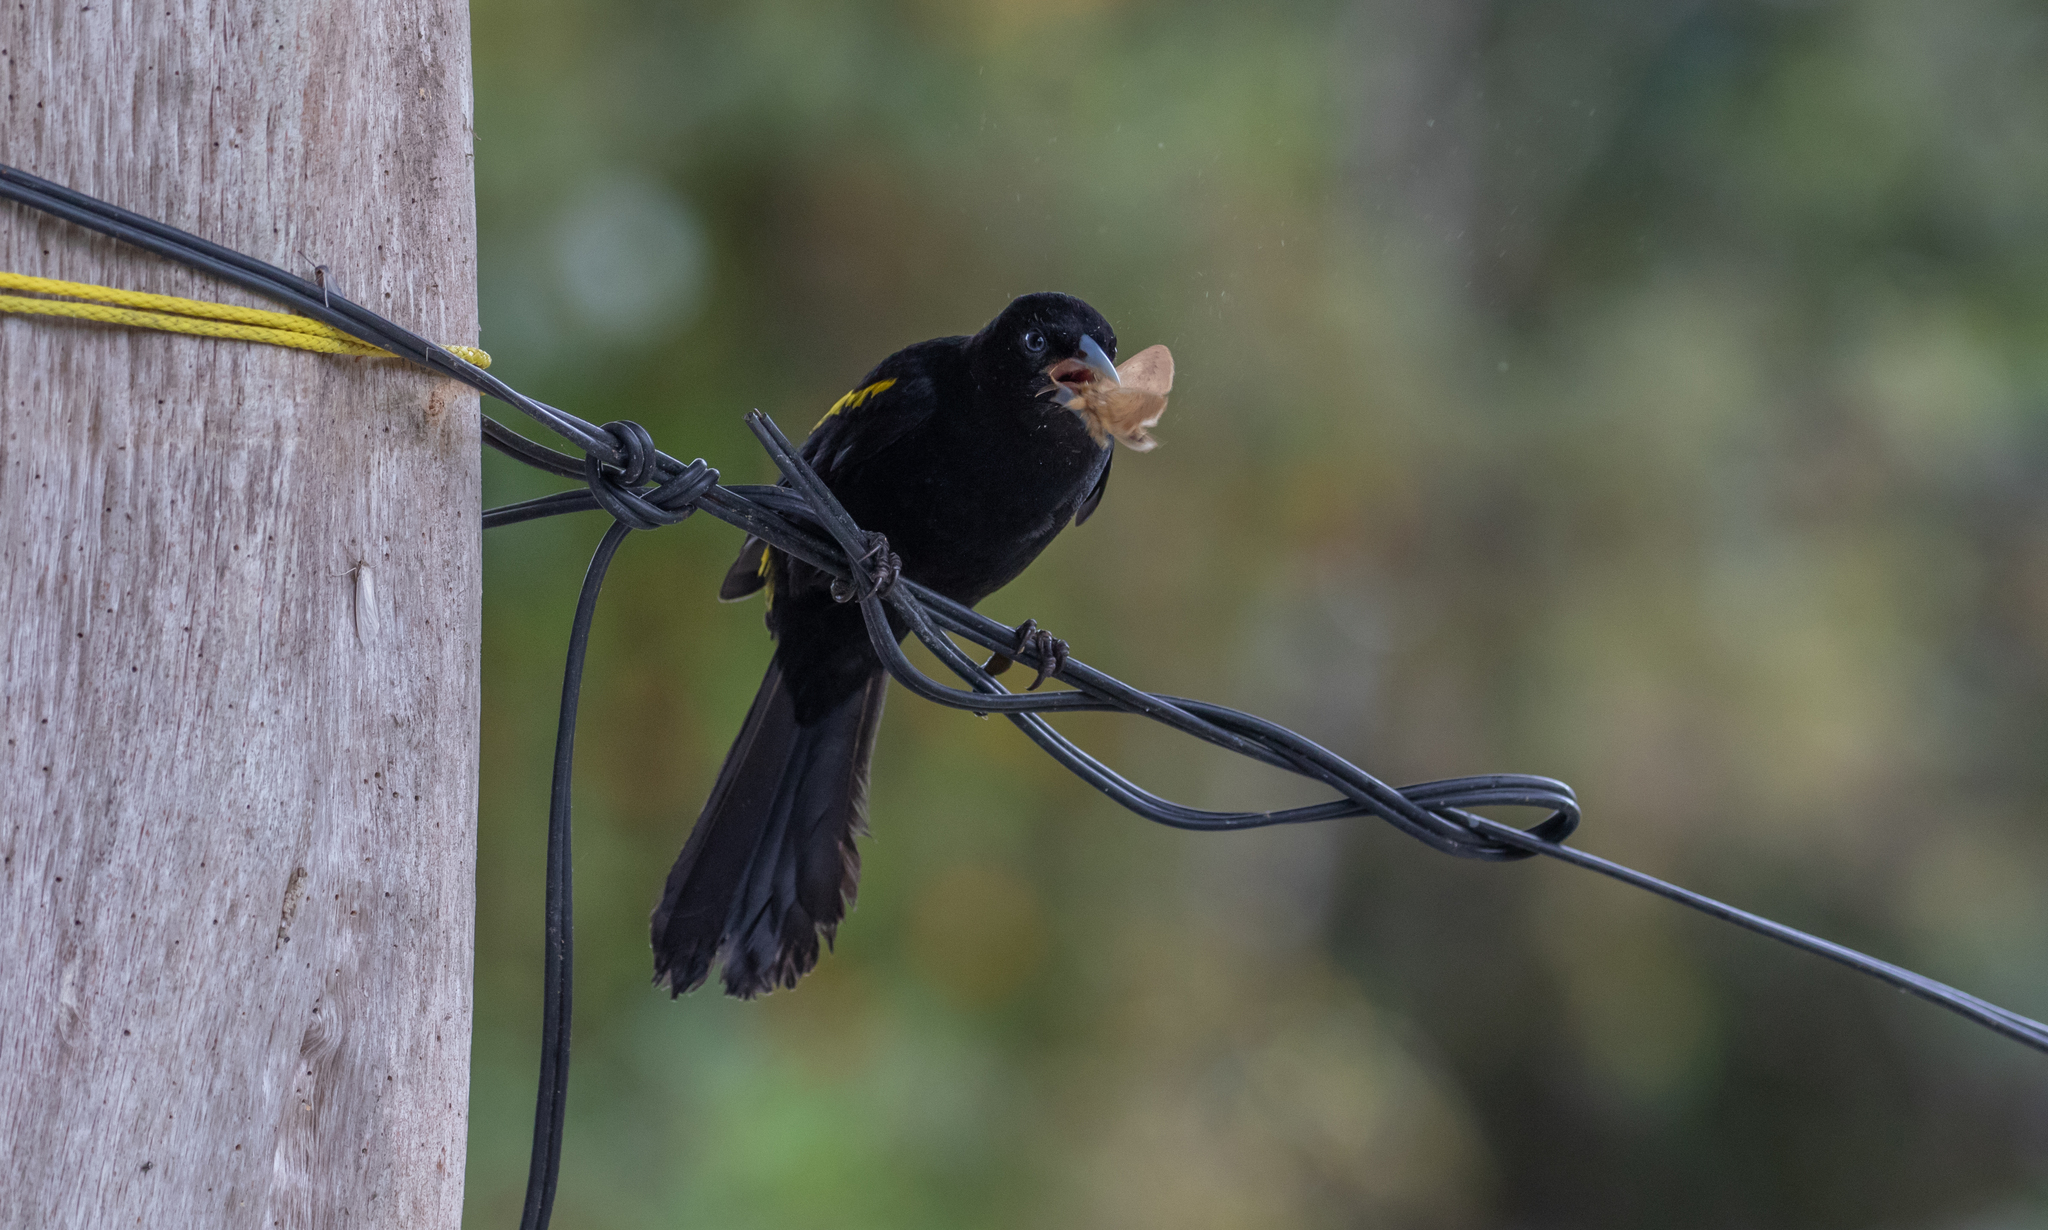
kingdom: Animalia
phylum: Chordata
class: Aves
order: Passeriformes
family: Icteridae
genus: Cacicus
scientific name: Cacicus chrysonotus
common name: Southern mountain cacique
